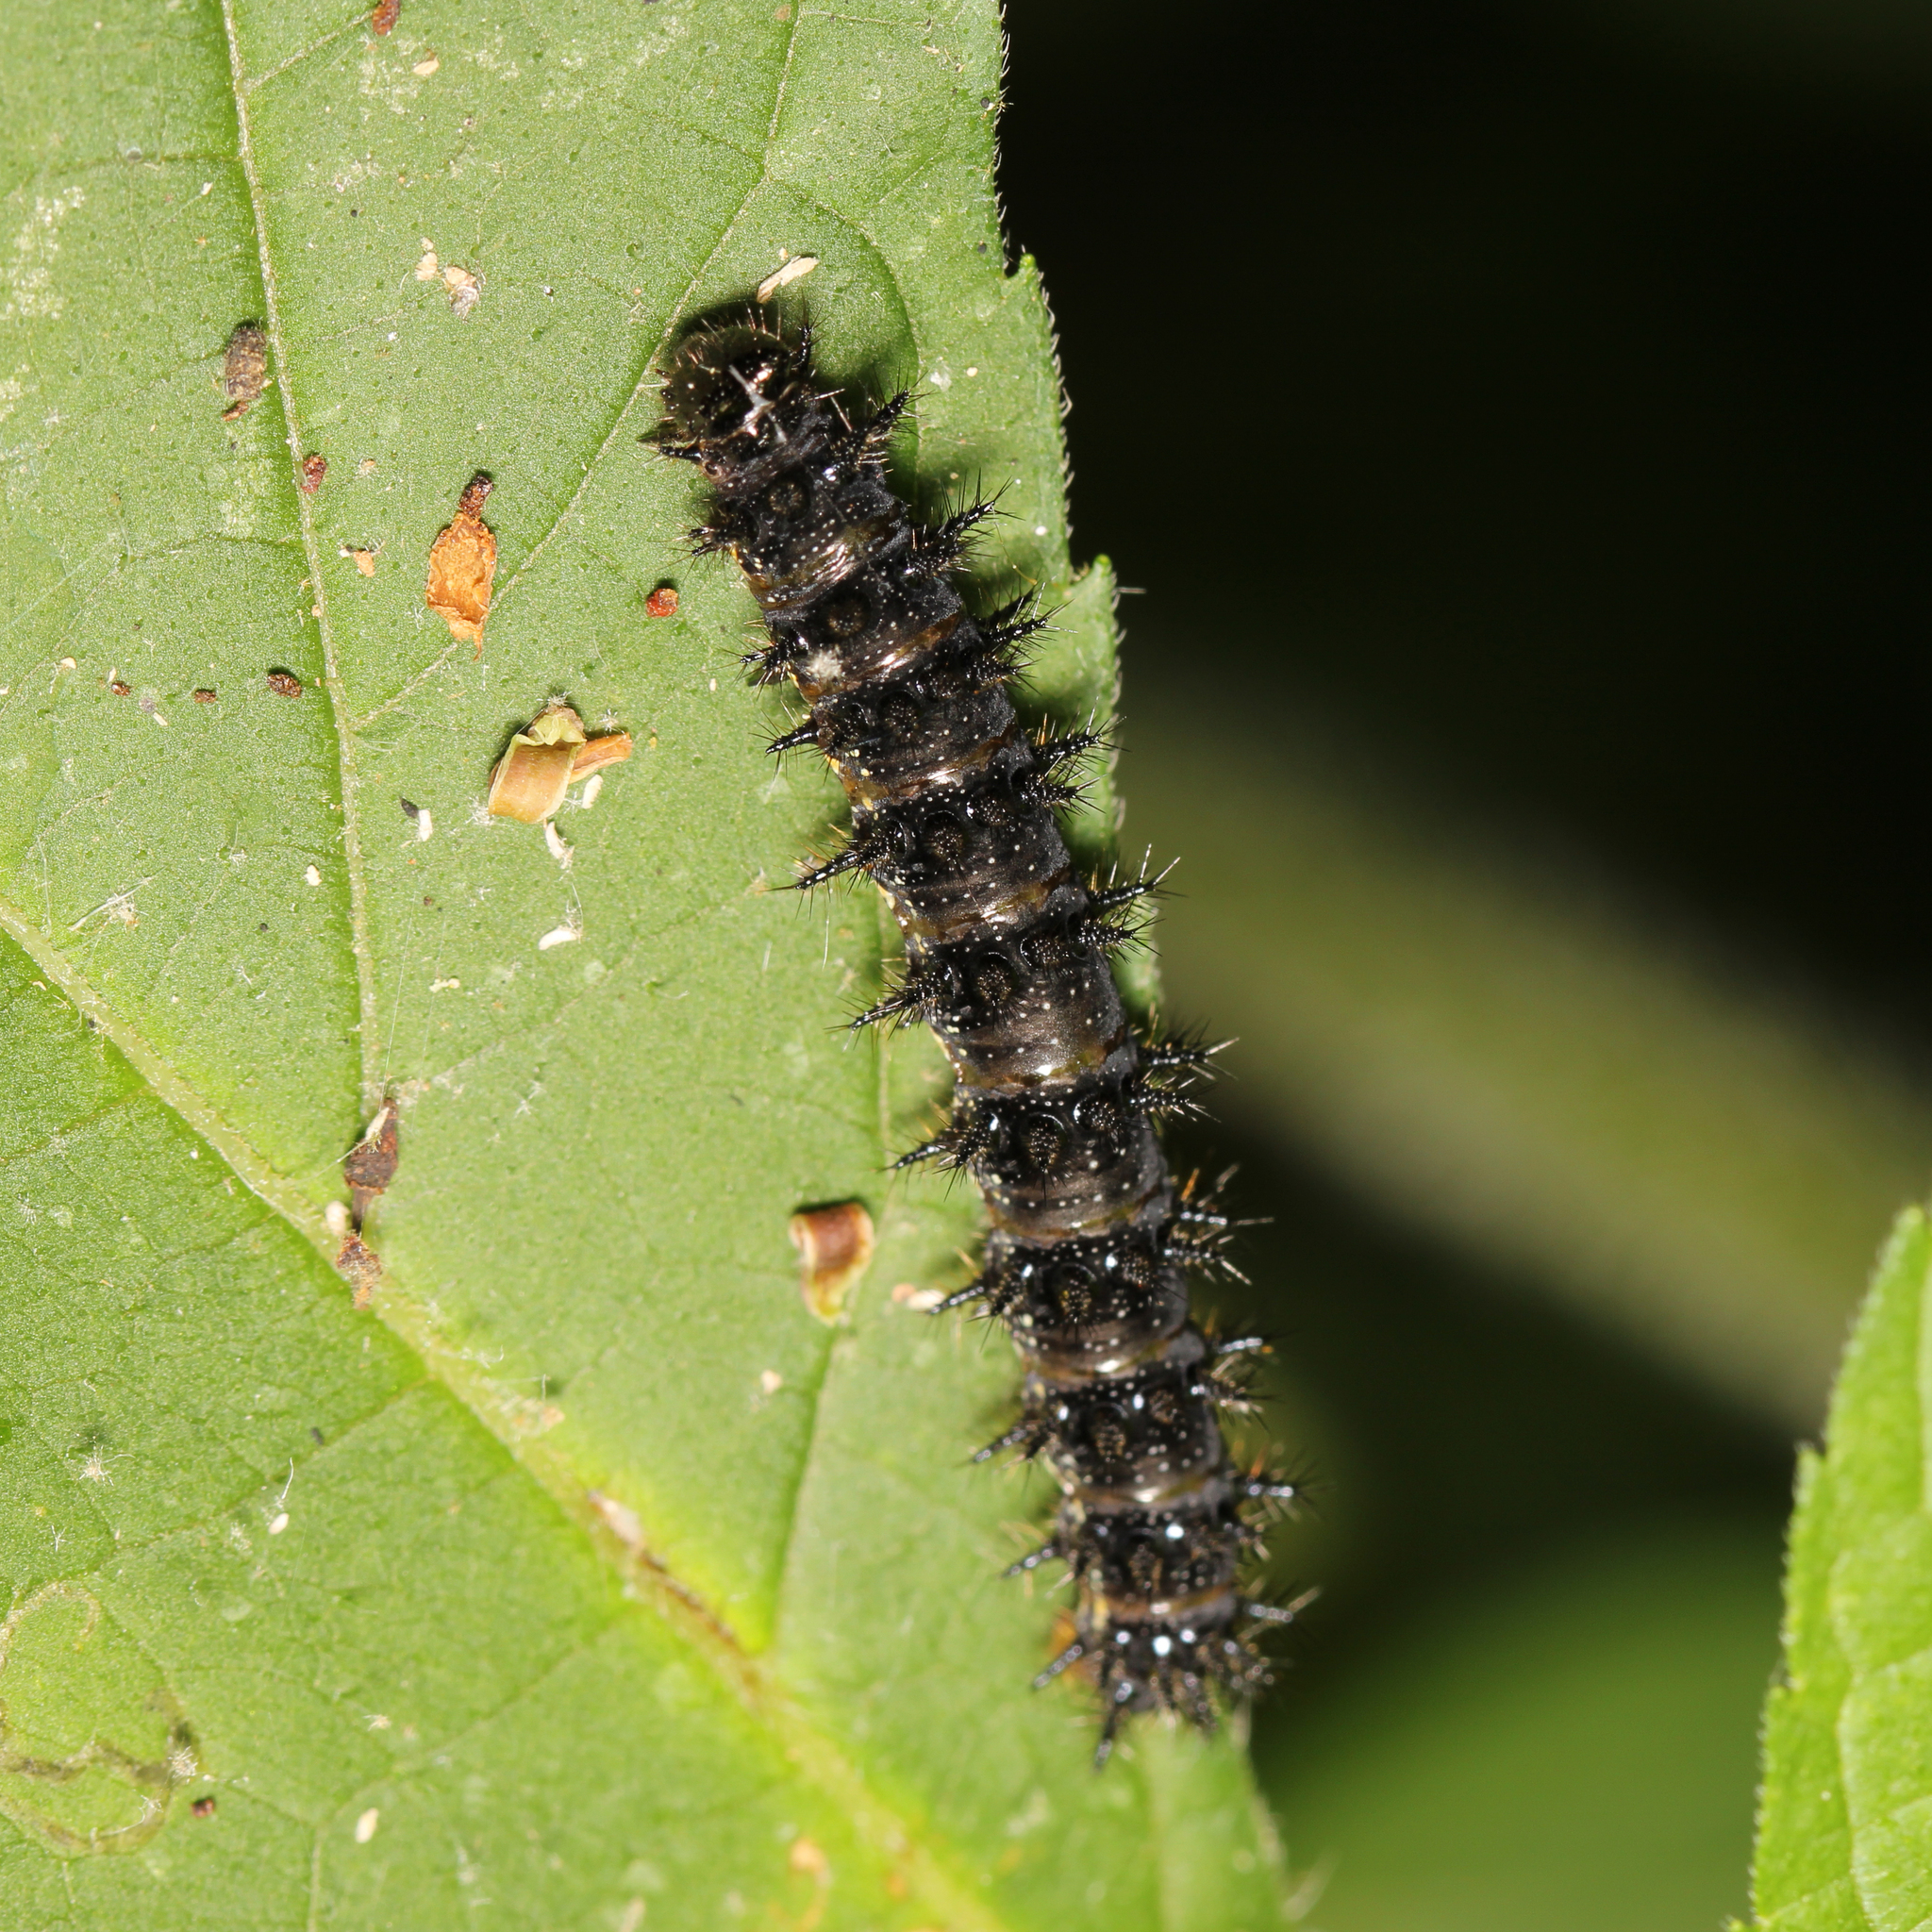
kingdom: Animalia
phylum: Arthropoda
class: Insecta
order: Lepidoptera
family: Nymphalidae
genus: Chlosyne
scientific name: Chlosyne nycteis
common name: Silvery checkerspot
